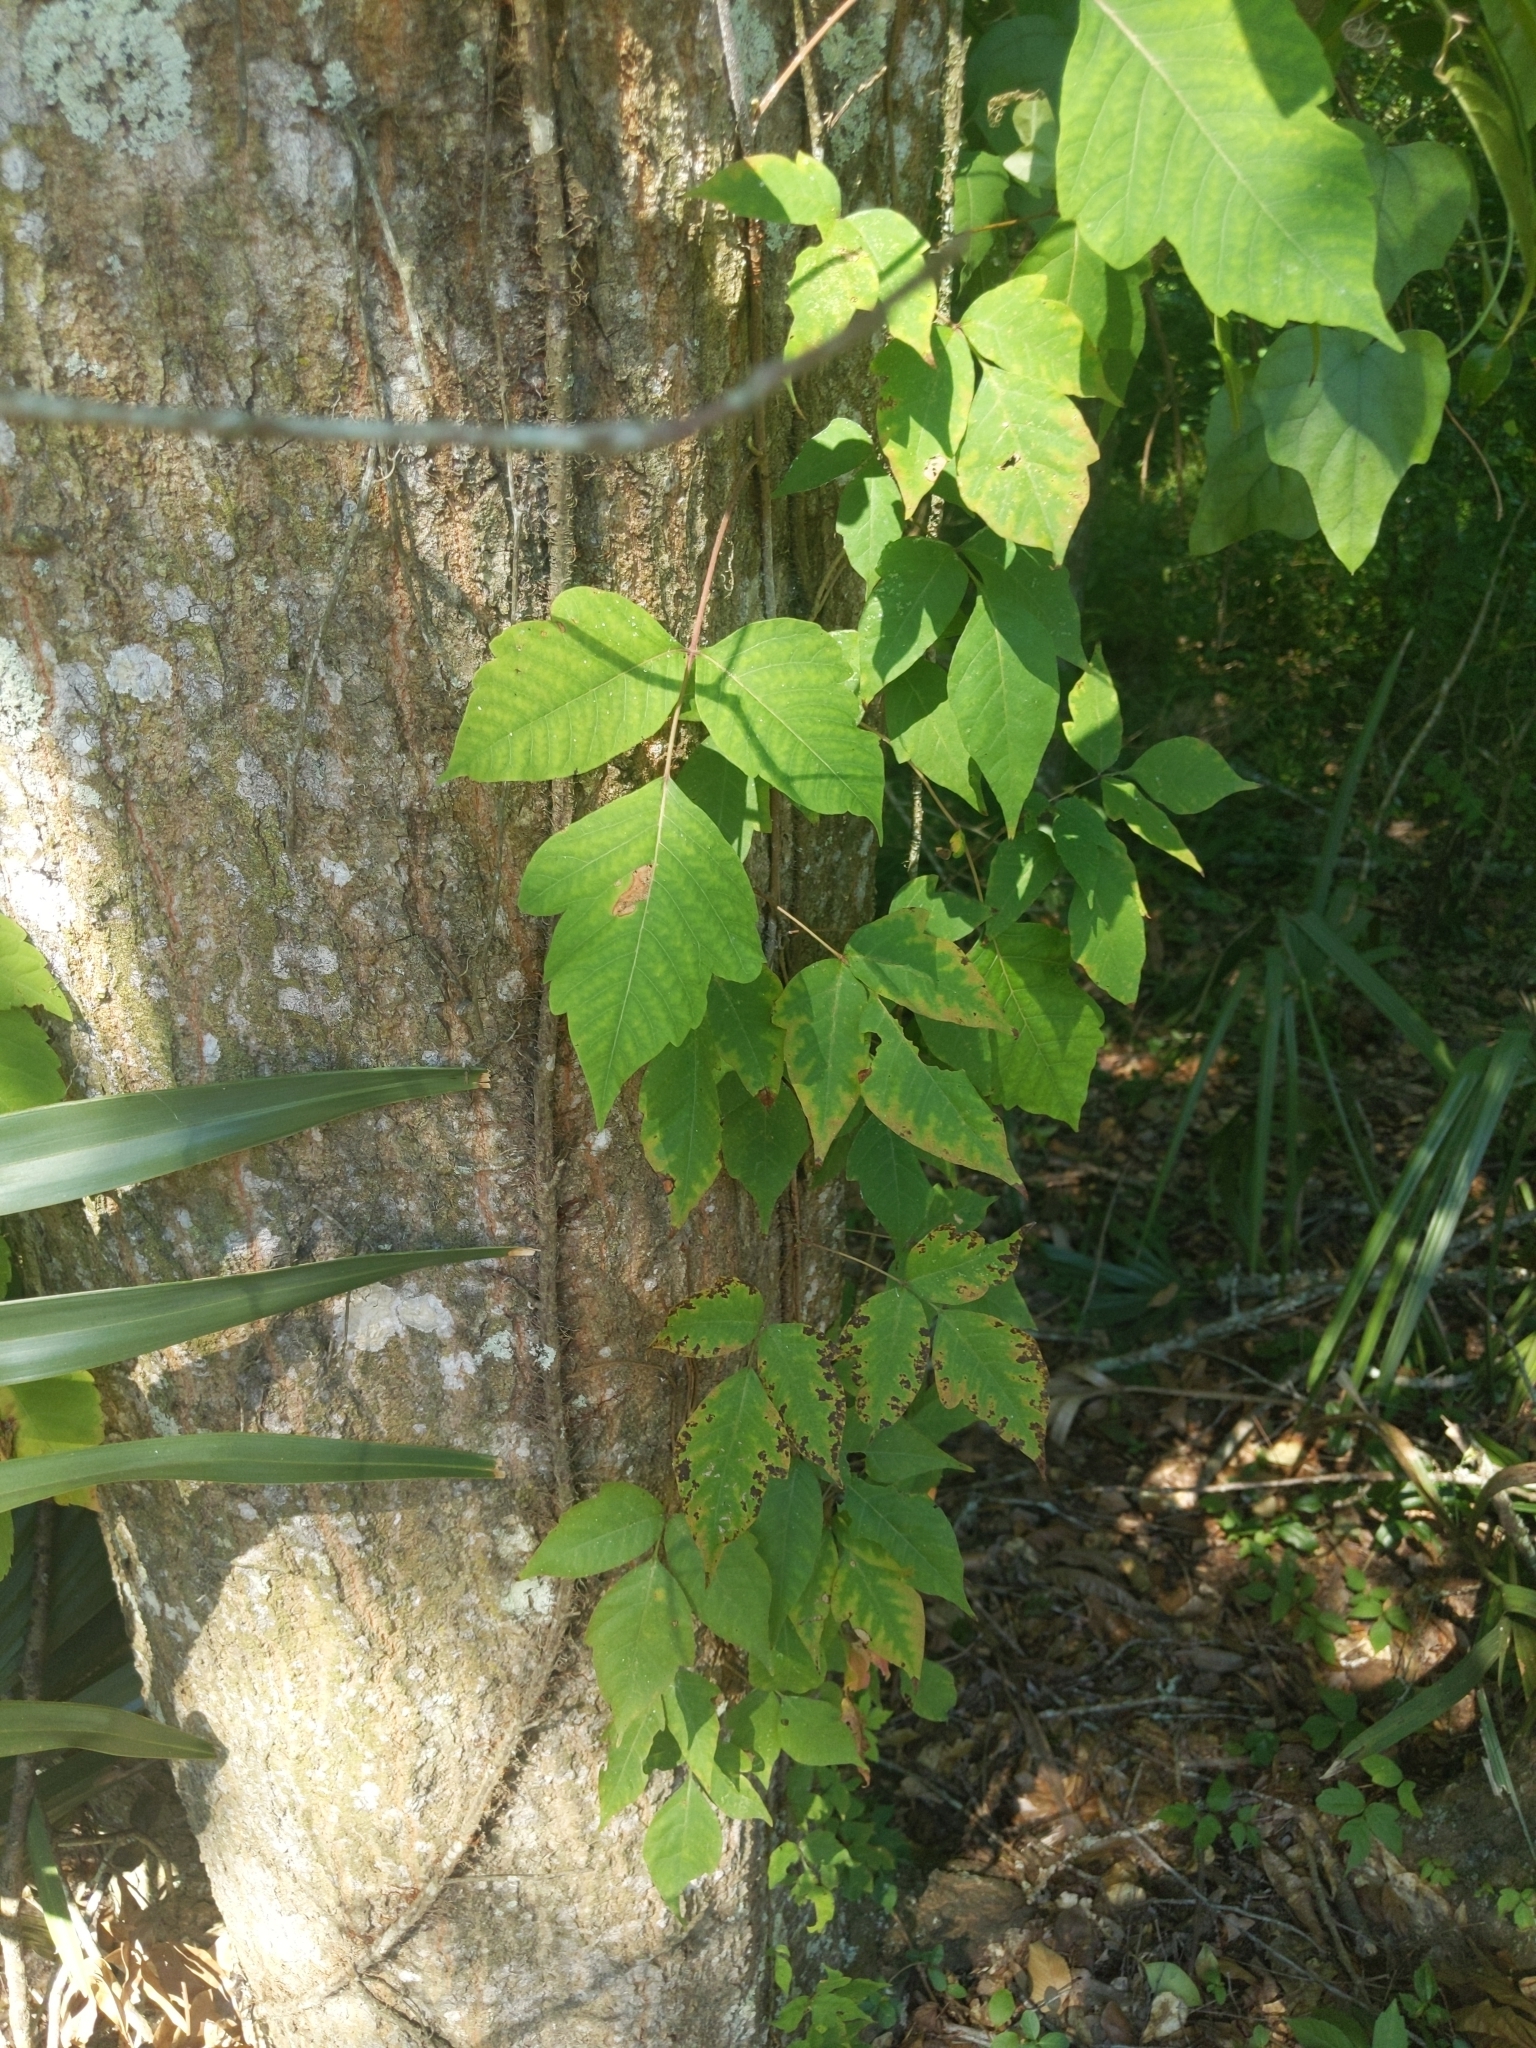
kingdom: Plantae
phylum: Tracheophyta
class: Magnoliopsida
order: Sapindales
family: Anacardiaceae
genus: Toxicodendron
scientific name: Toxicodendron radicans
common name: Poison ivy
